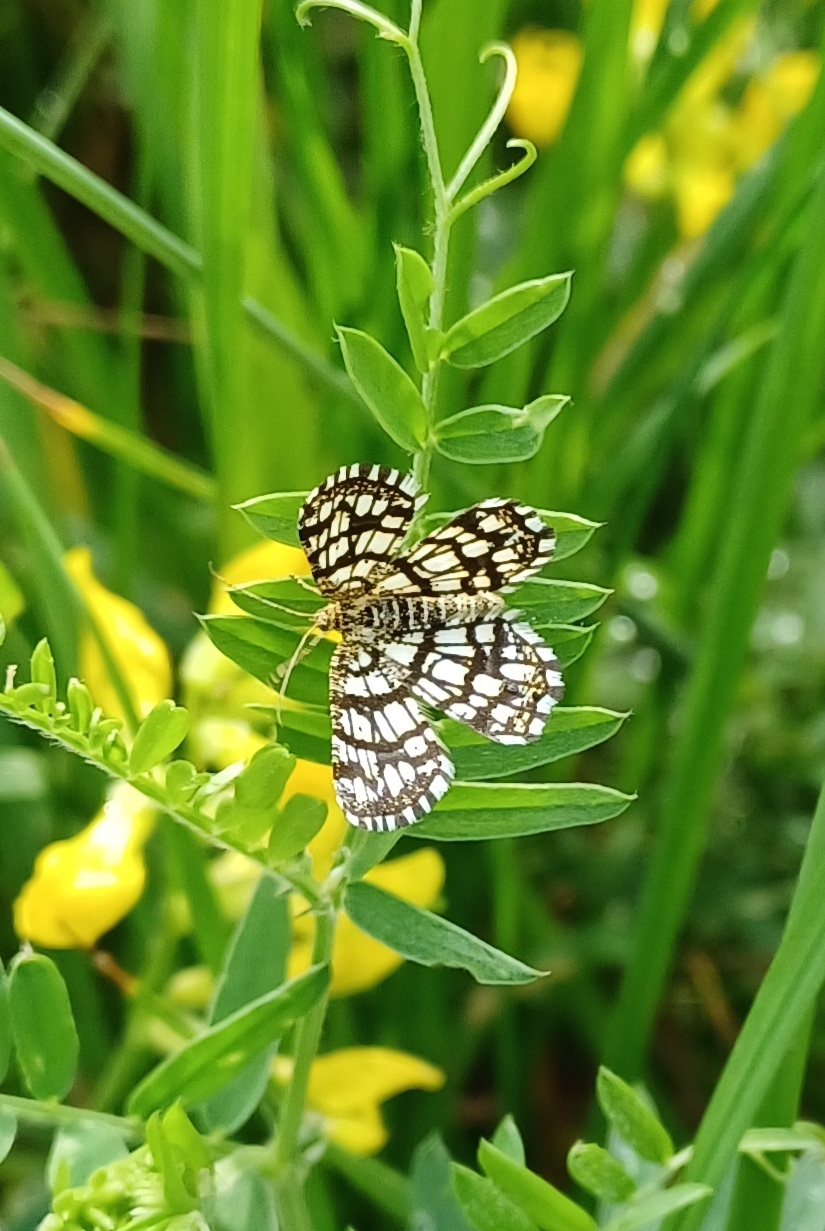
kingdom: Animalia
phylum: Arthropoda
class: Insecta
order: Lepidoptera
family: Geometridae
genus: Chiasmia
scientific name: Chiasmia clathrata
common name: Latticed heath
